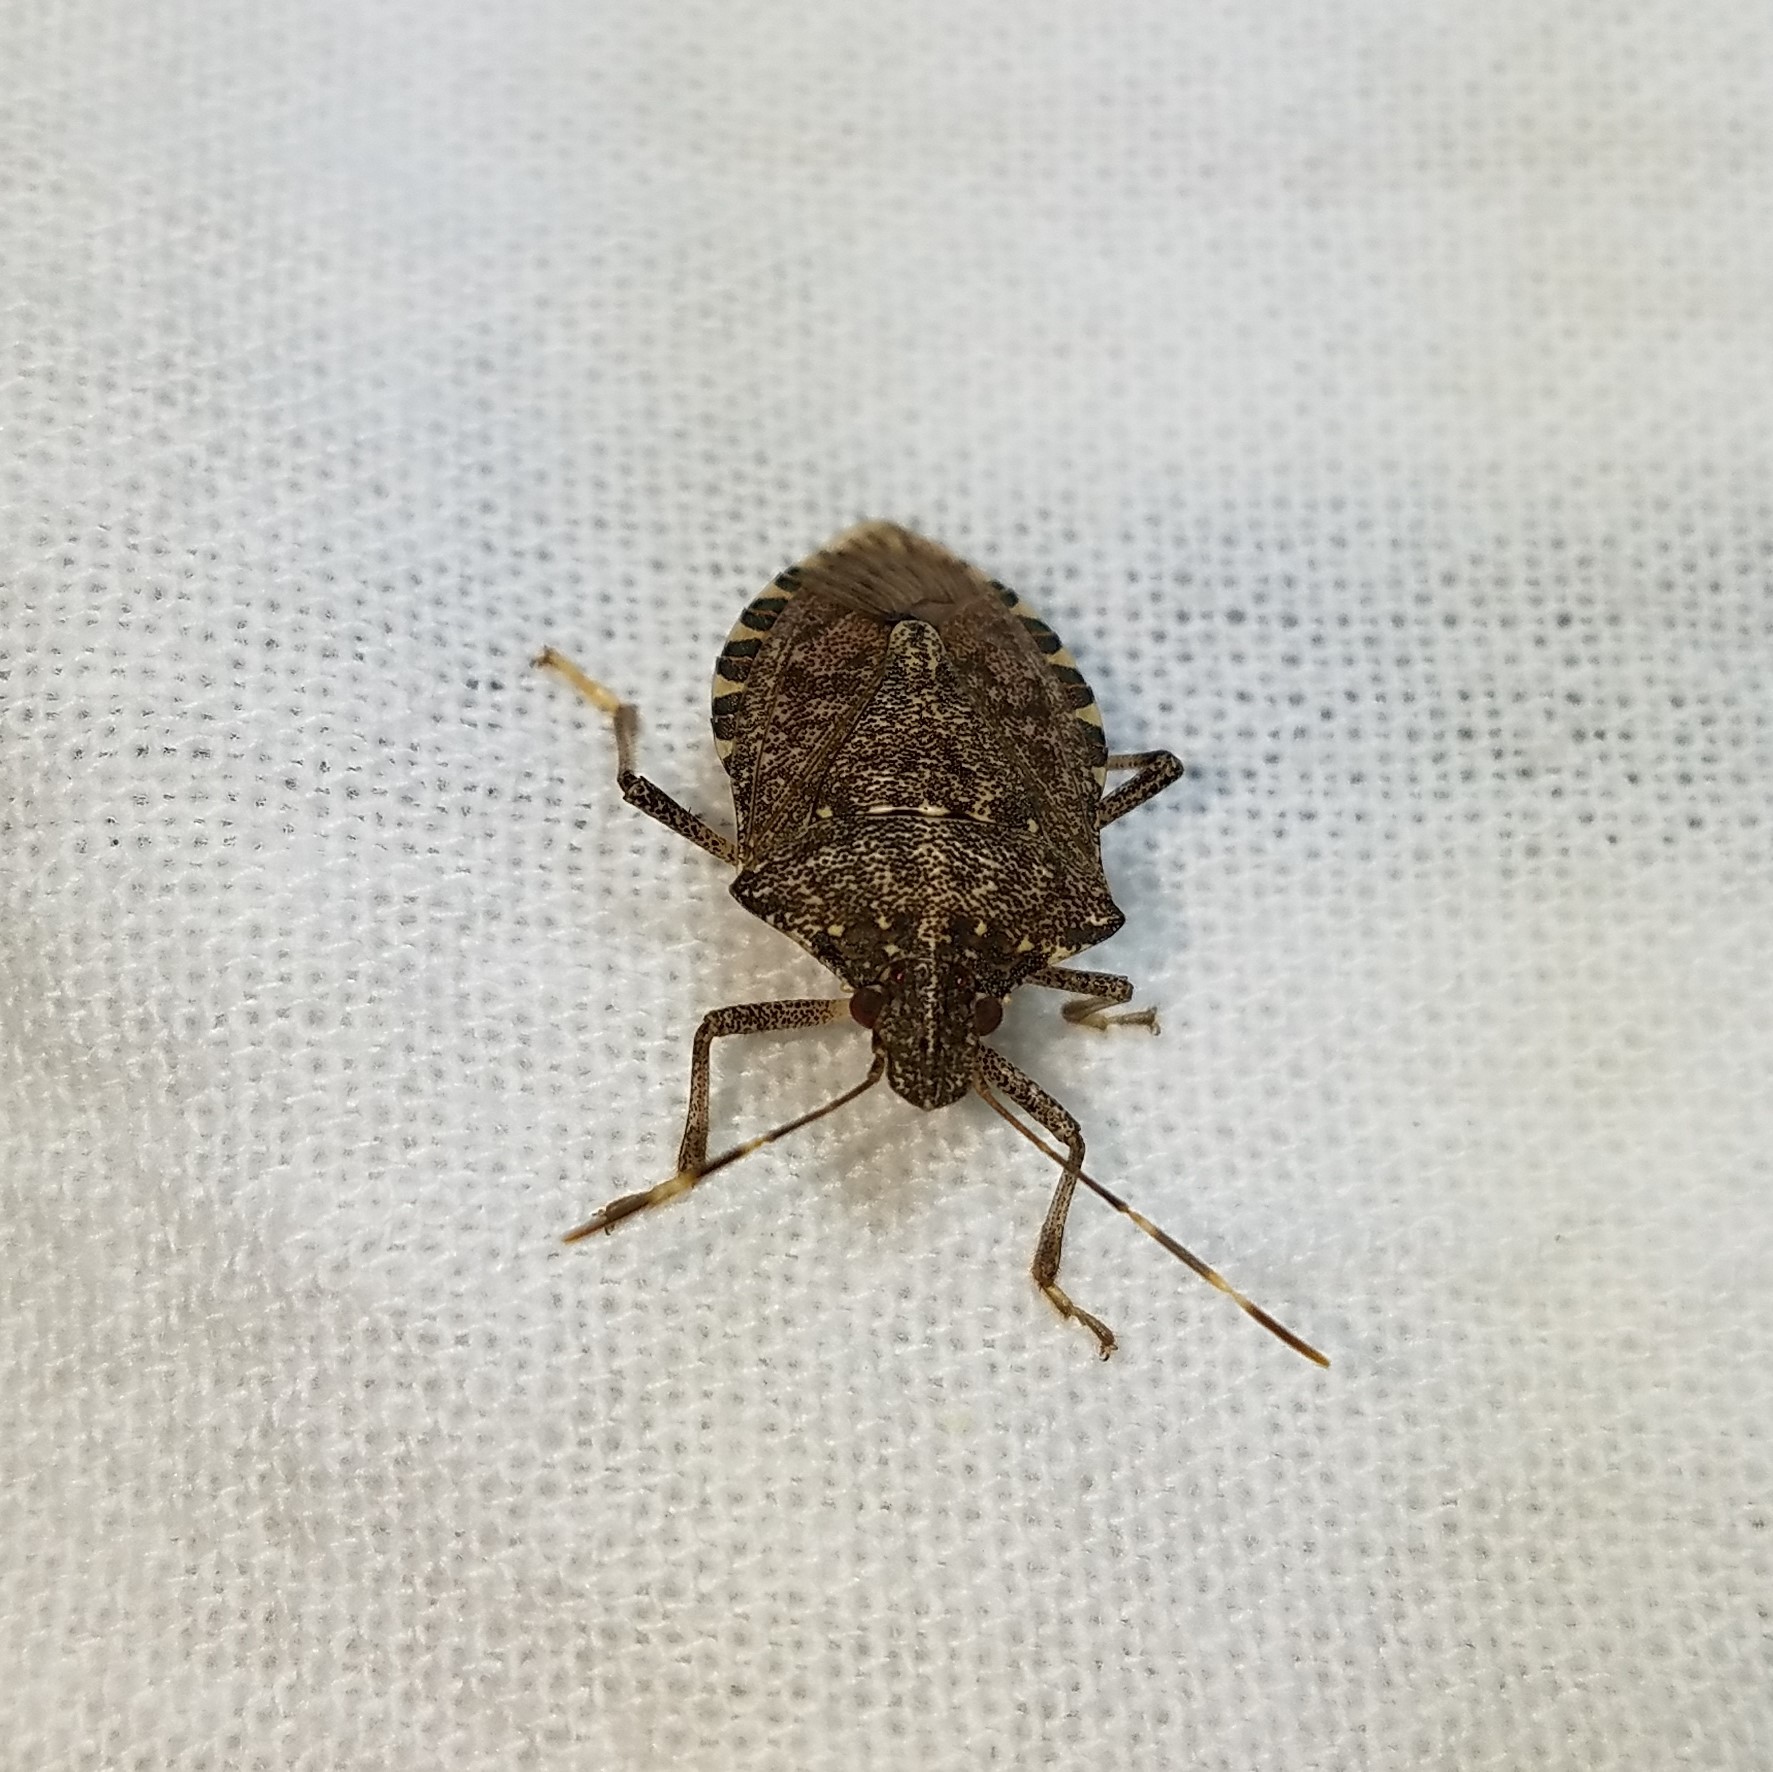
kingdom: Animalia
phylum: Arthropoda
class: Insecta
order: Hemiptera
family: Pentatomidae
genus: Halyomorpha
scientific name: Halyomorpha halys
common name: Brown marmorated stink bug
